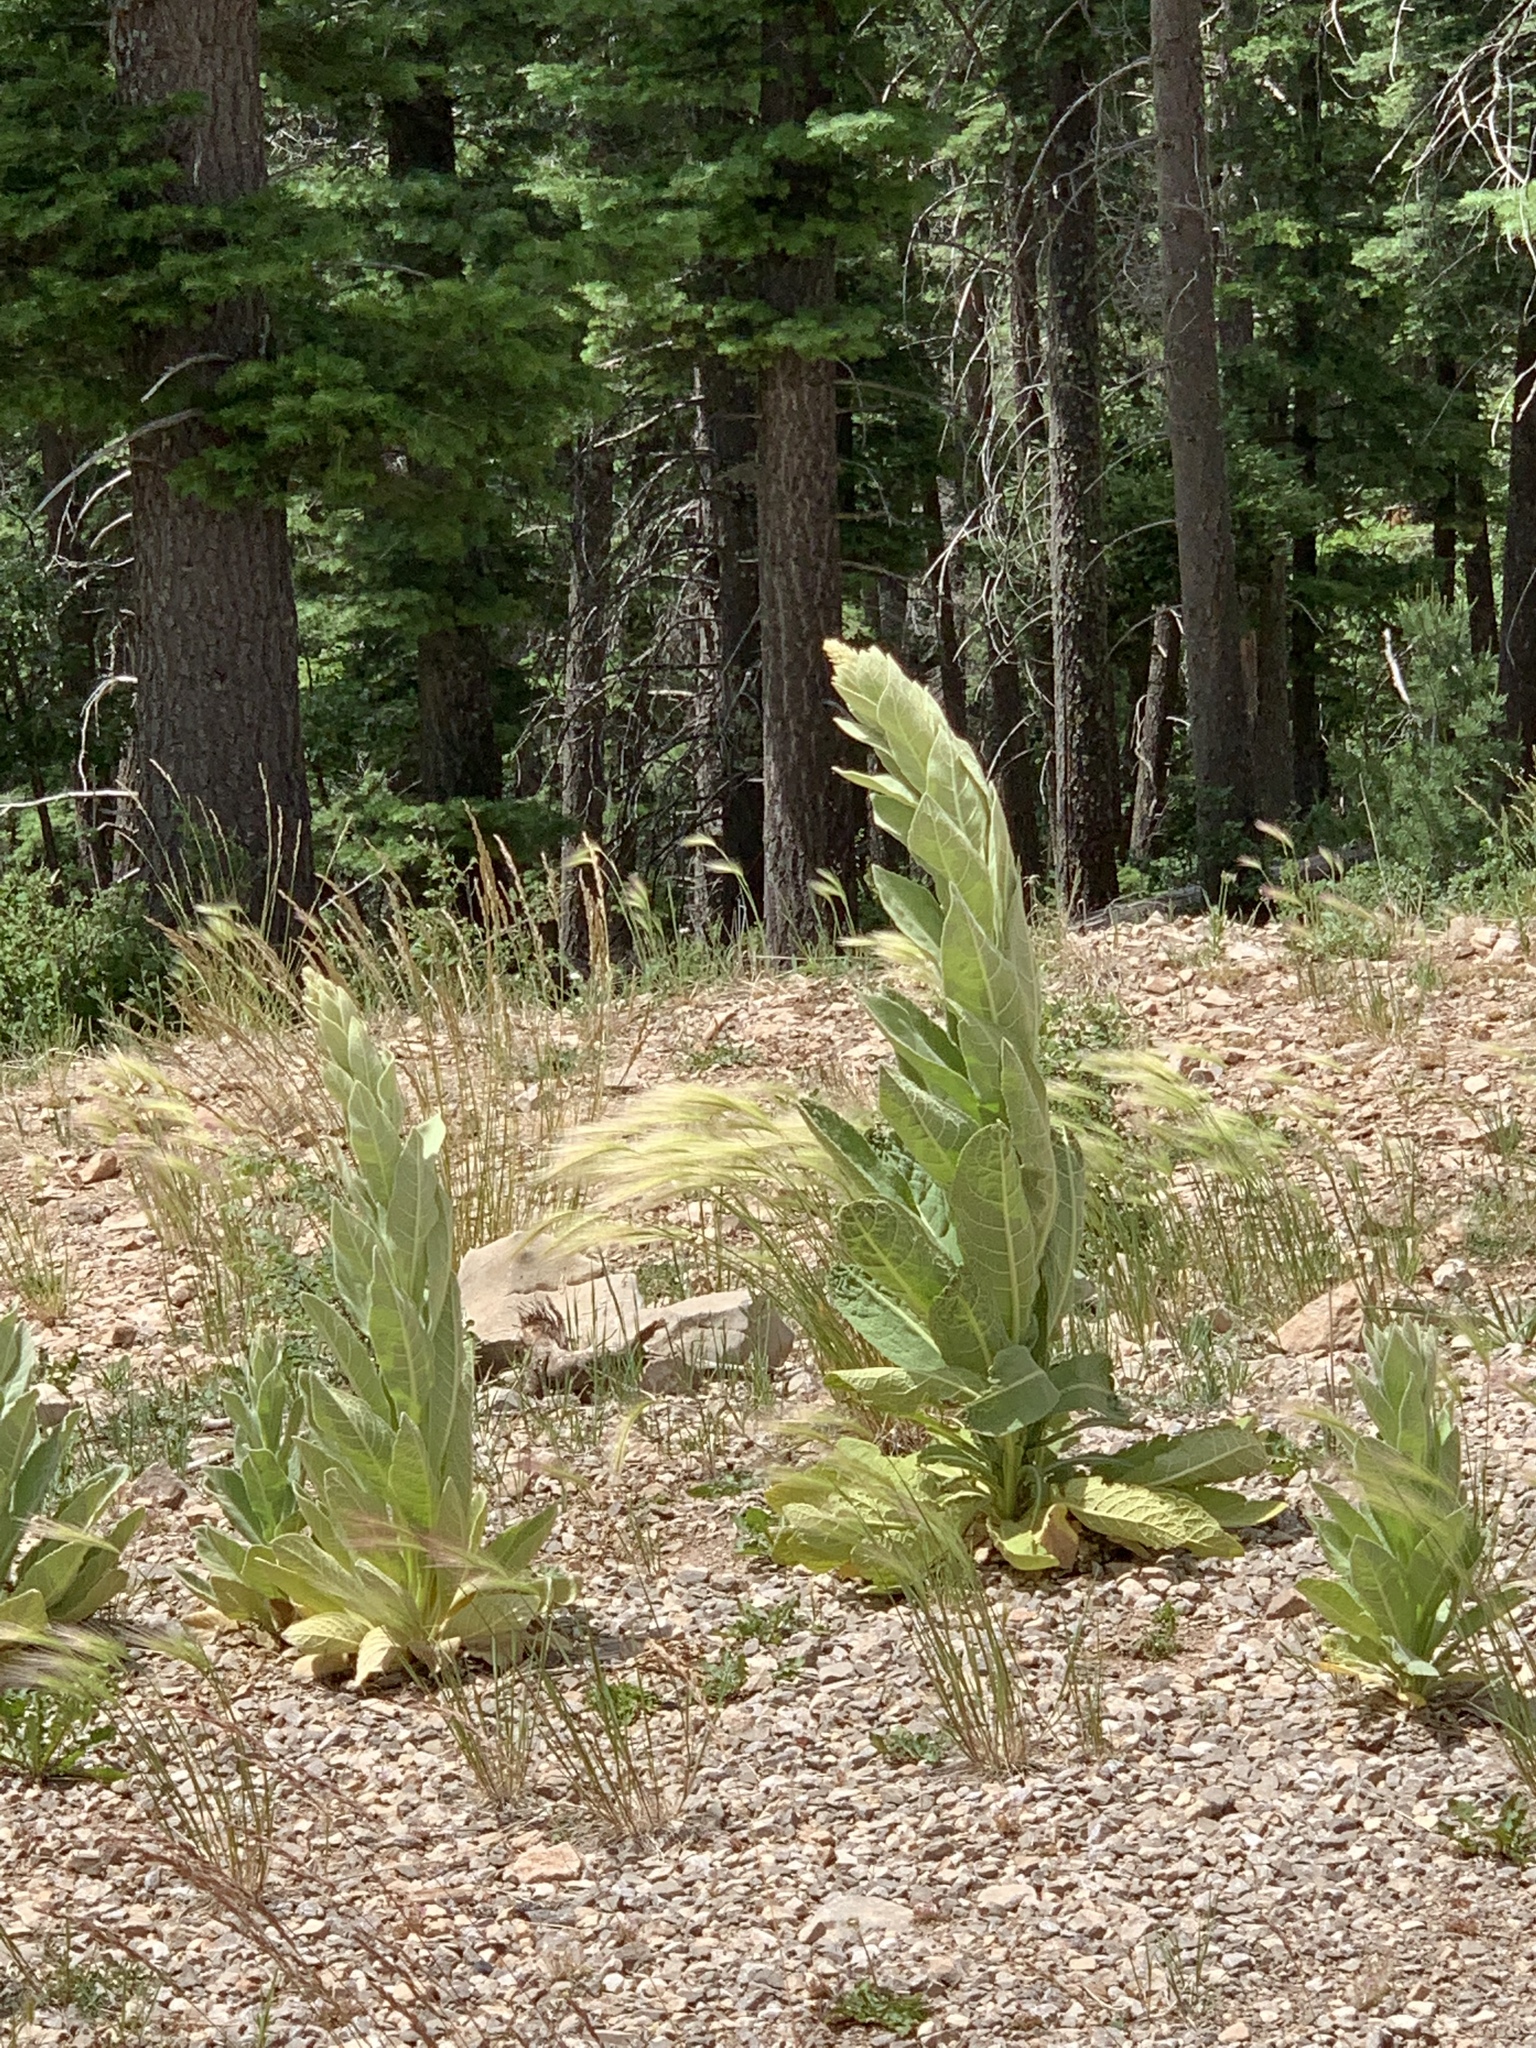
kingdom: Plantae
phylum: Tracheophyta
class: Magnoliopsida
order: Lamiales
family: Scrophulariaceae
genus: Verbascum
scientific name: Verbascum thapsus
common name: Common mullein
